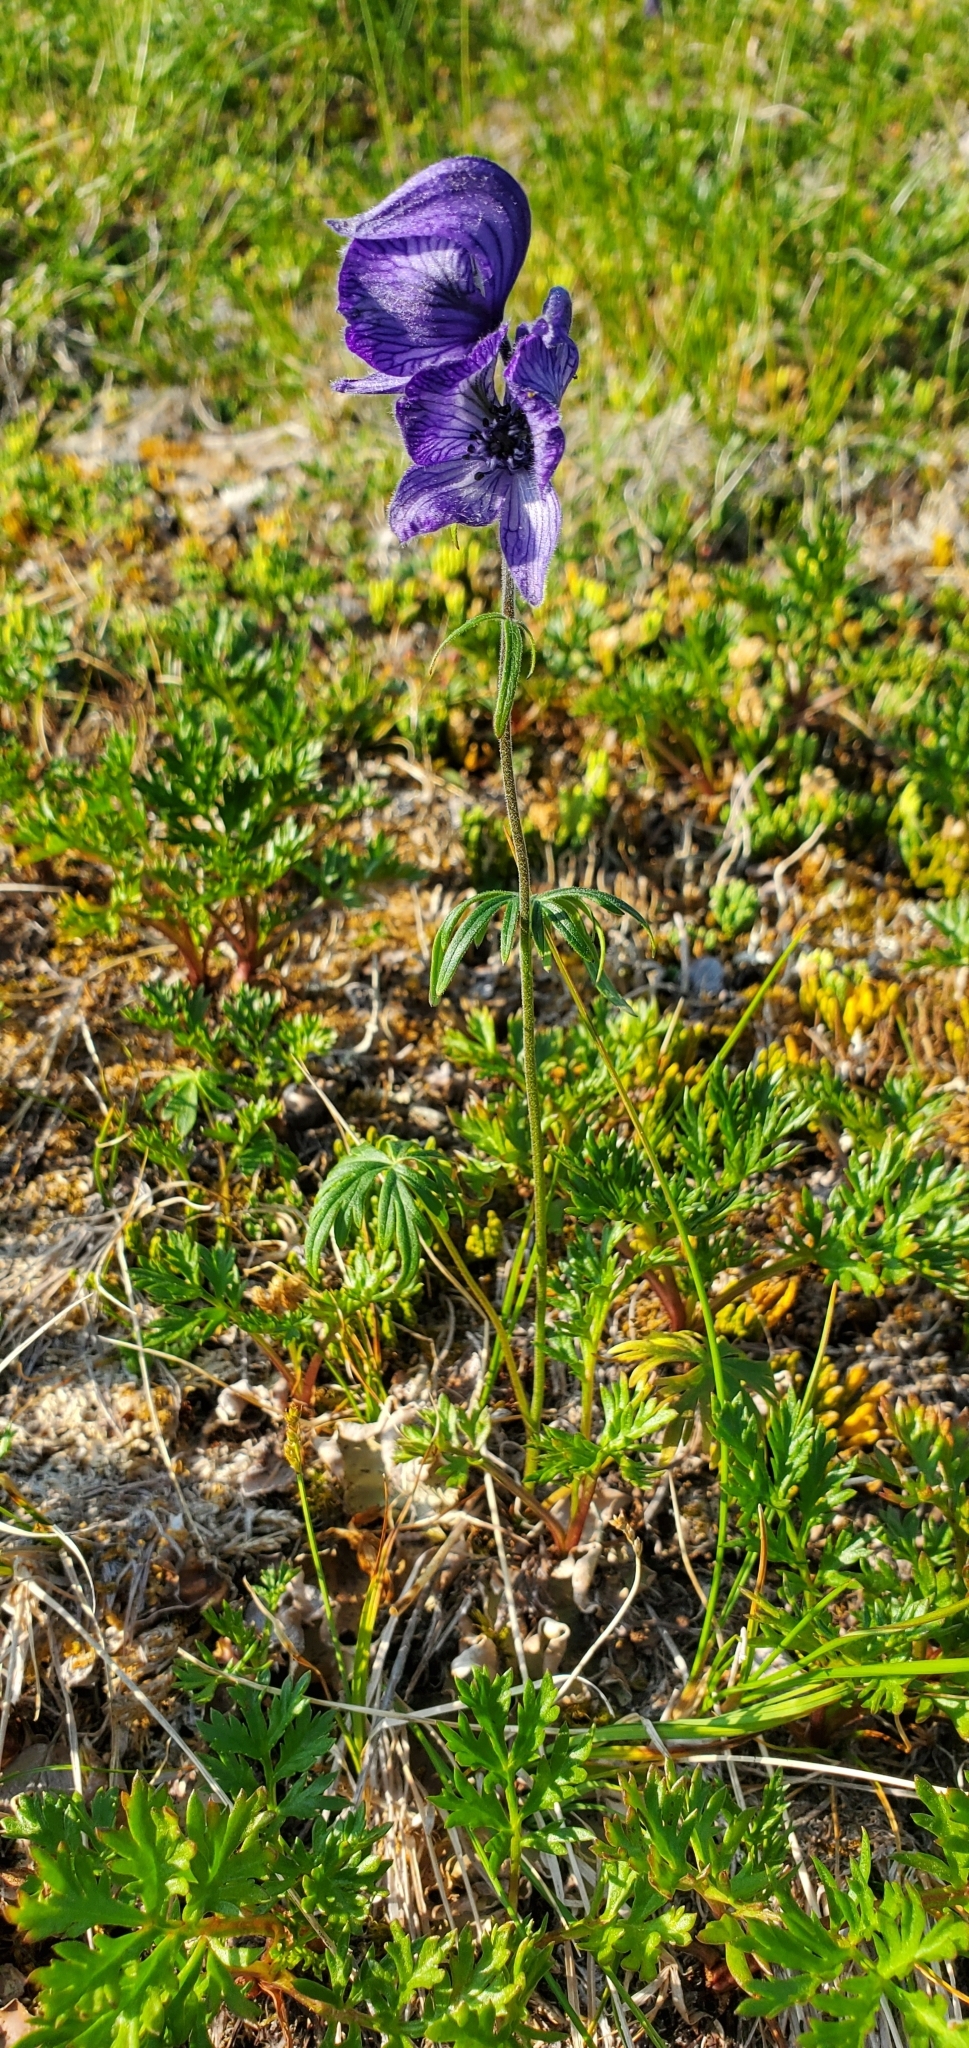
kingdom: Plantae
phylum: Tracheophyta
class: Magnoliopsida
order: Ranunculales
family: Ranunculaceae
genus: Aconitum
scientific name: Aconitum delphiniifolium
